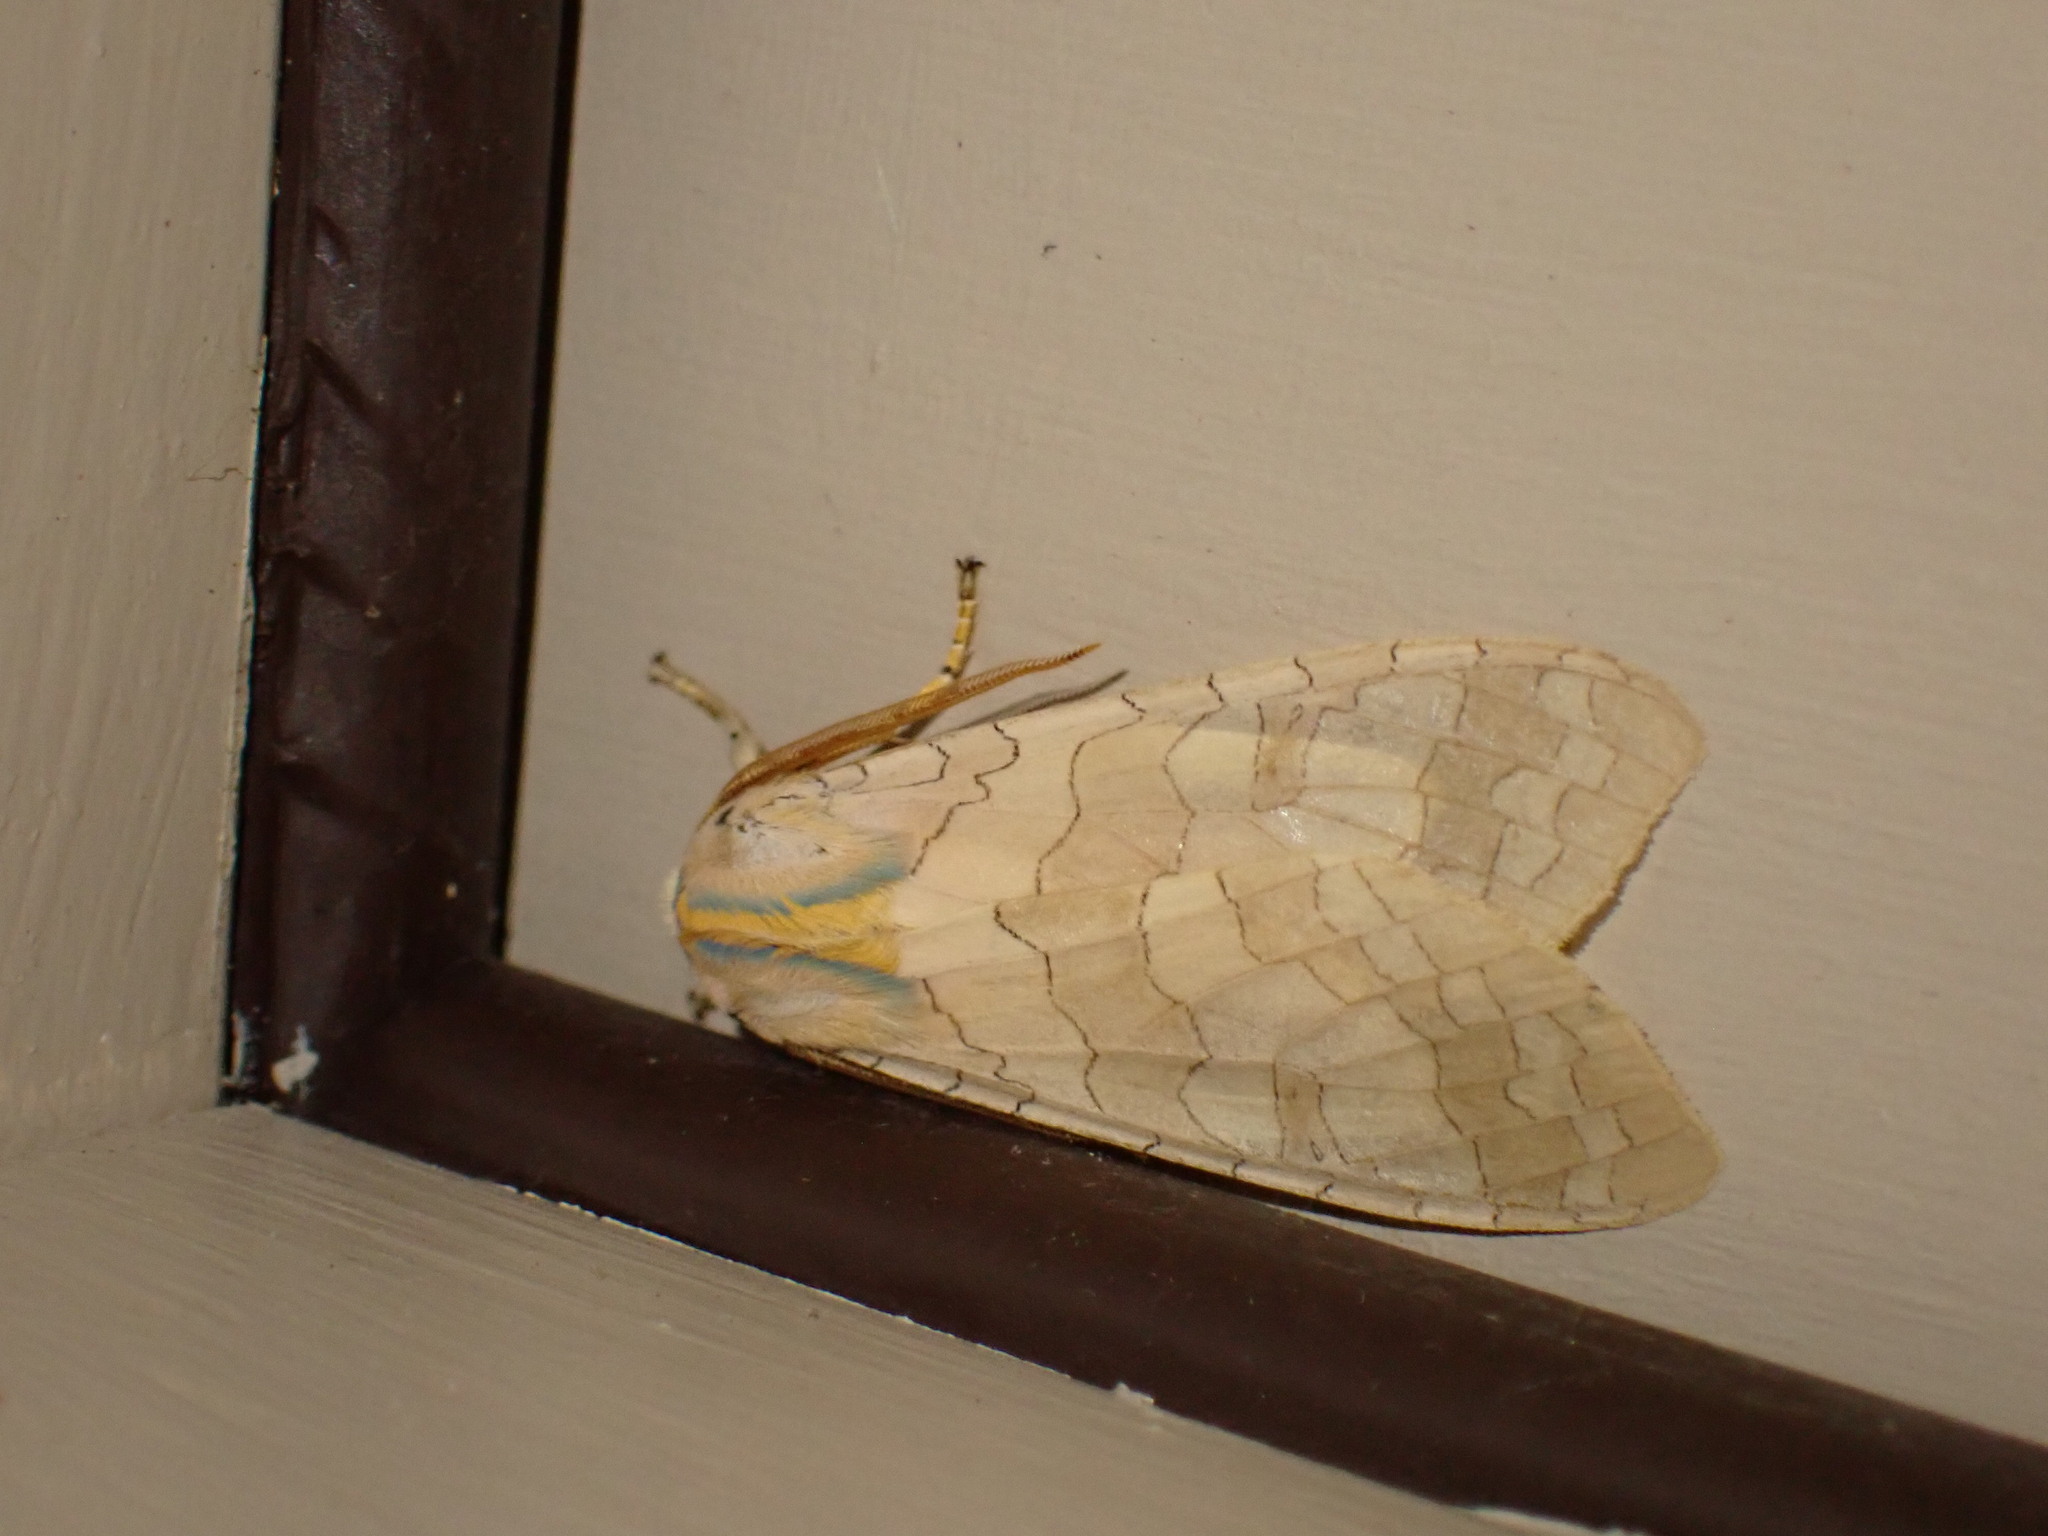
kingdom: Animalia
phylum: Arthropoda
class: Insecta
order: Lepidoptera
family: Erebidae
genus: Halysidota
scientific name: Halysidota
